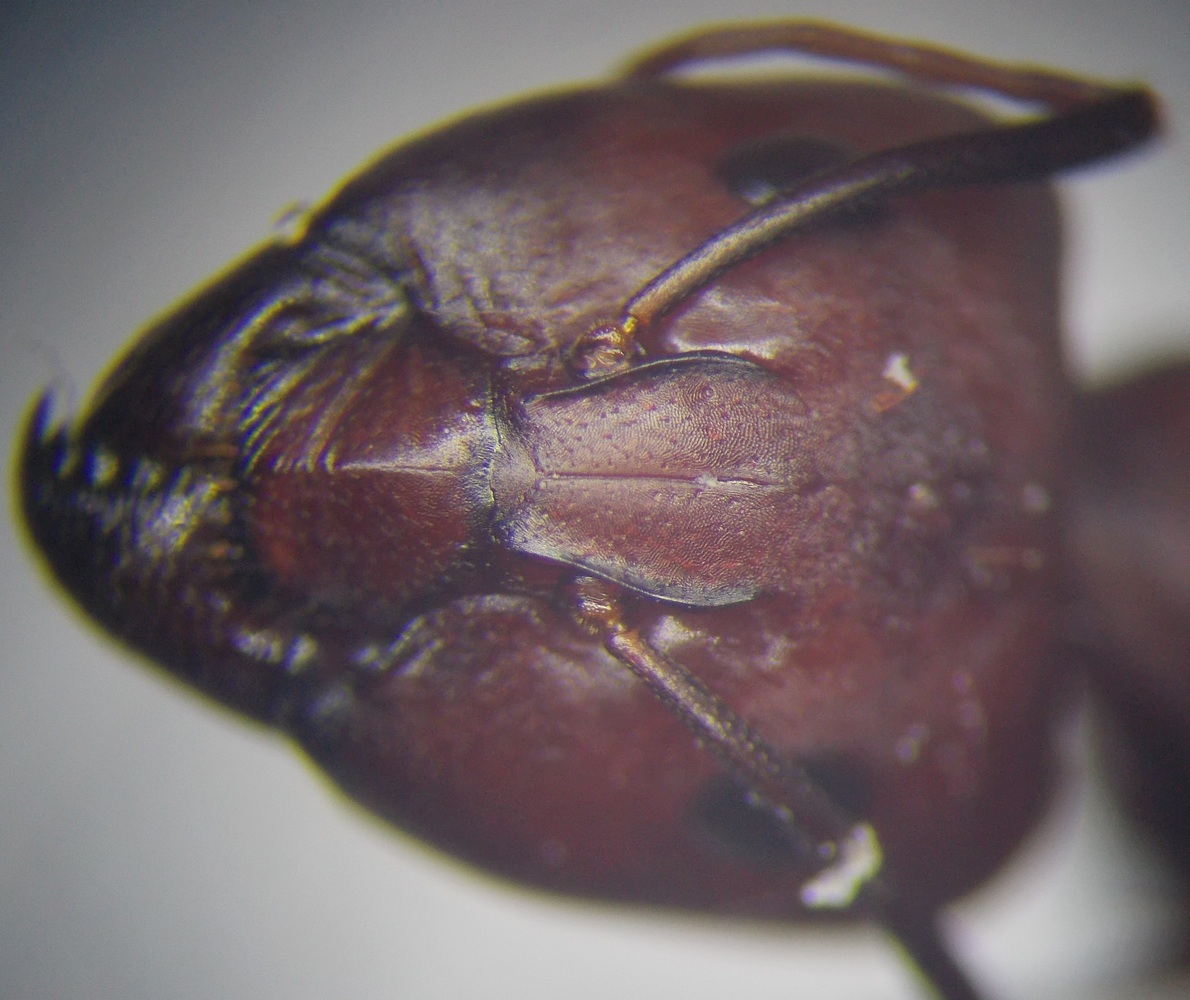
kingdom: Animalia
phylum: Arthropoda
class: Insecta
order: Hymenoptera
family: Formicidae
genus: Camponotus
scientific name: Camponotus turkestanicus
